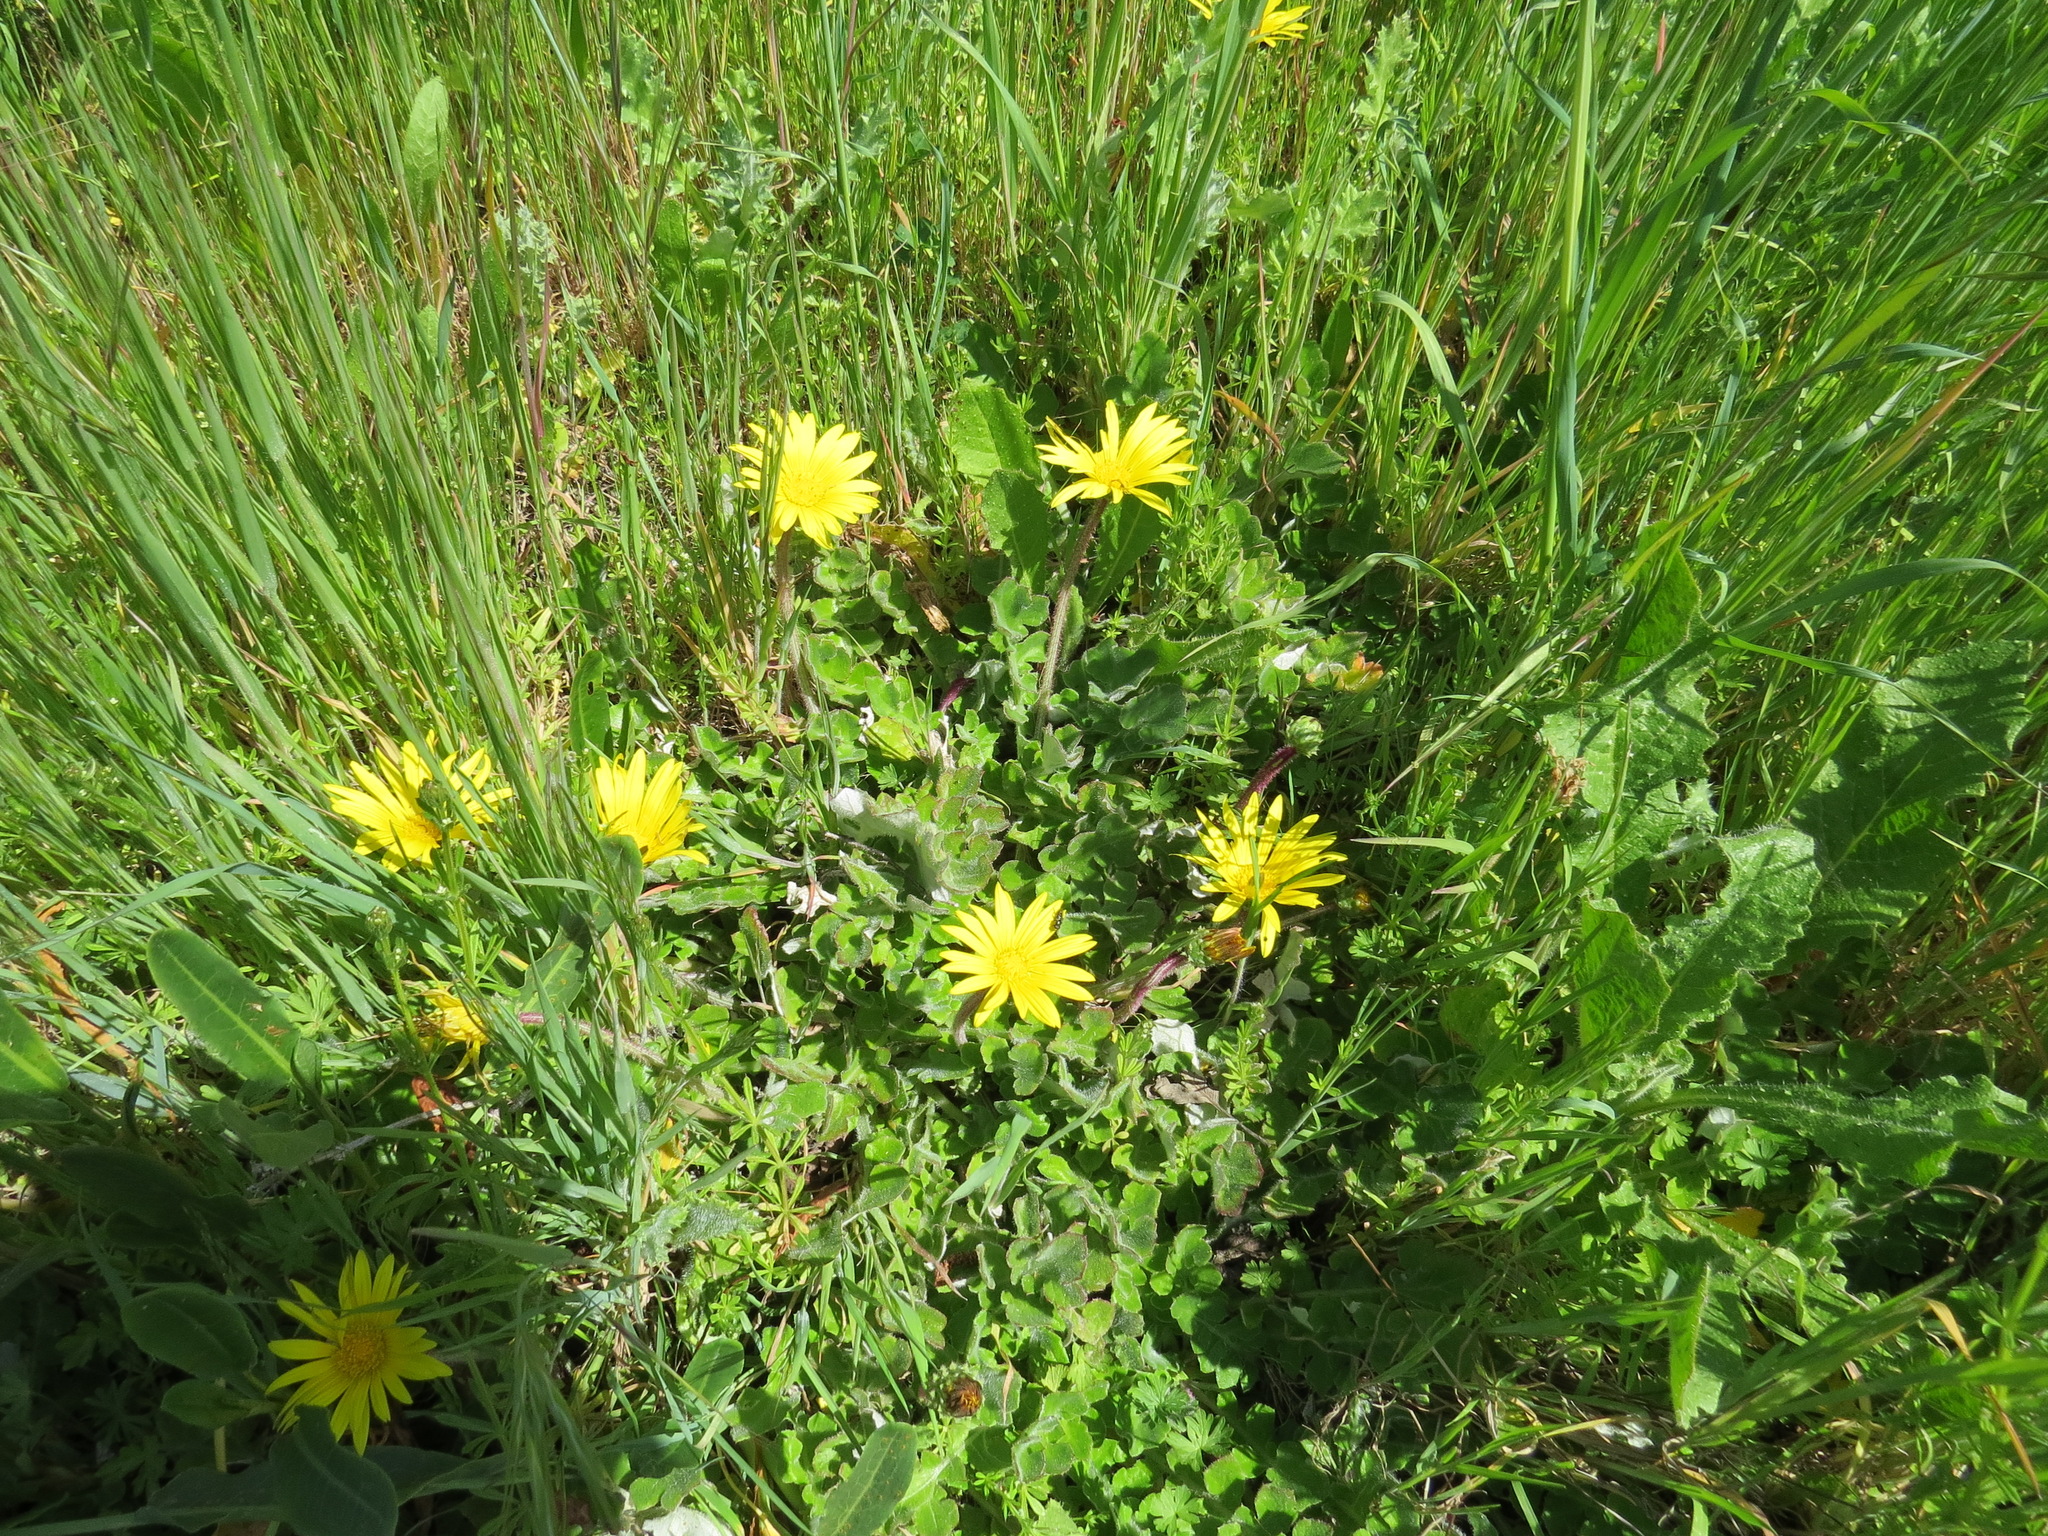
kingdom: Plantae
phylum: Tracheophyta
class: Magnoliopsida
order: Asterales
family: Asteraceae
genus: Arctotheca
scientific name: Arctotheca prostrata
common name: Capeweed
